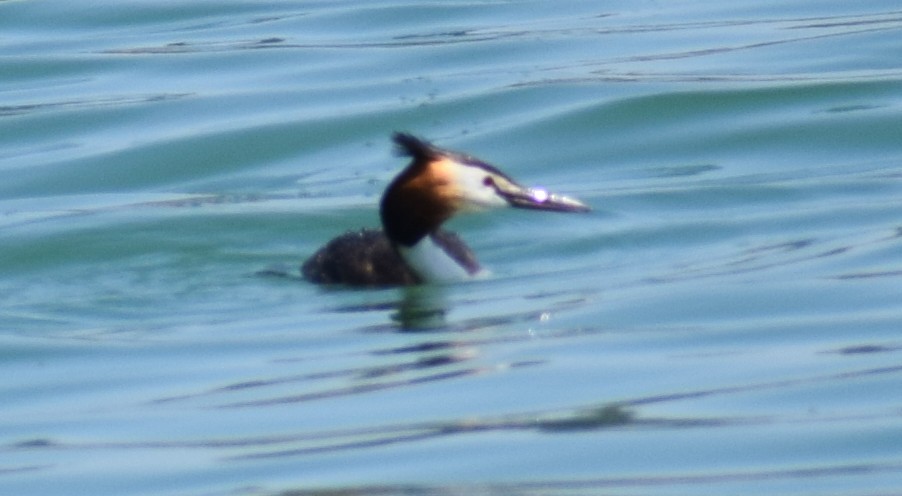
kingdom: Animalia
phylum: Chordata
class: Aves
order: Podicipediformes
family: Podicipedidae
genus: Podiceps
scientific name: Podiceps cristatus
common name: Great crested grebe
